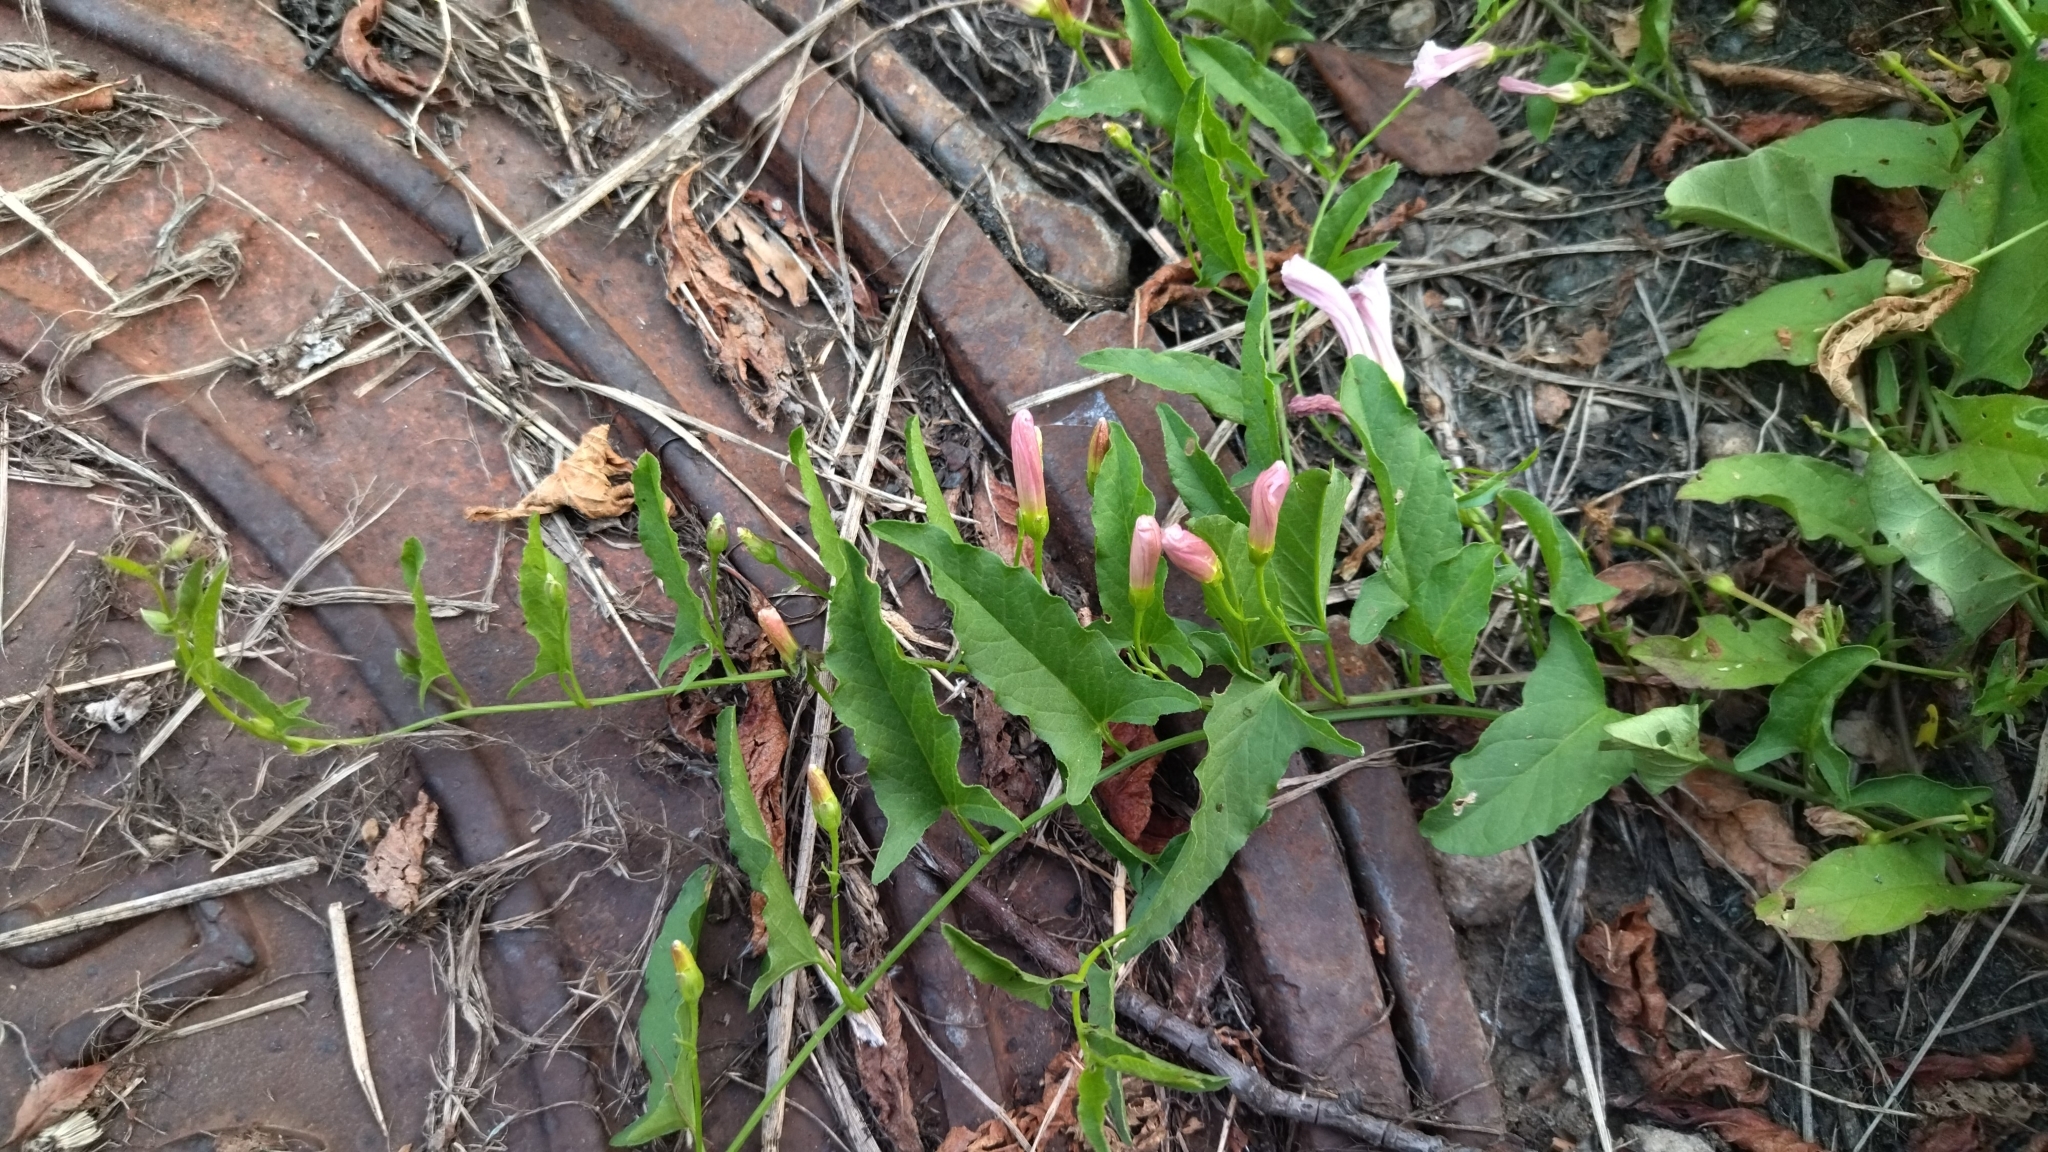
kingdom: Plantae
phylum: Tracheophyta
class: Magnoliopsida
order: Solanales
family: Convolvulaceae
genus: Convolvulus
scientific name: Convolvulus arvensis
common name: Field bindweed
